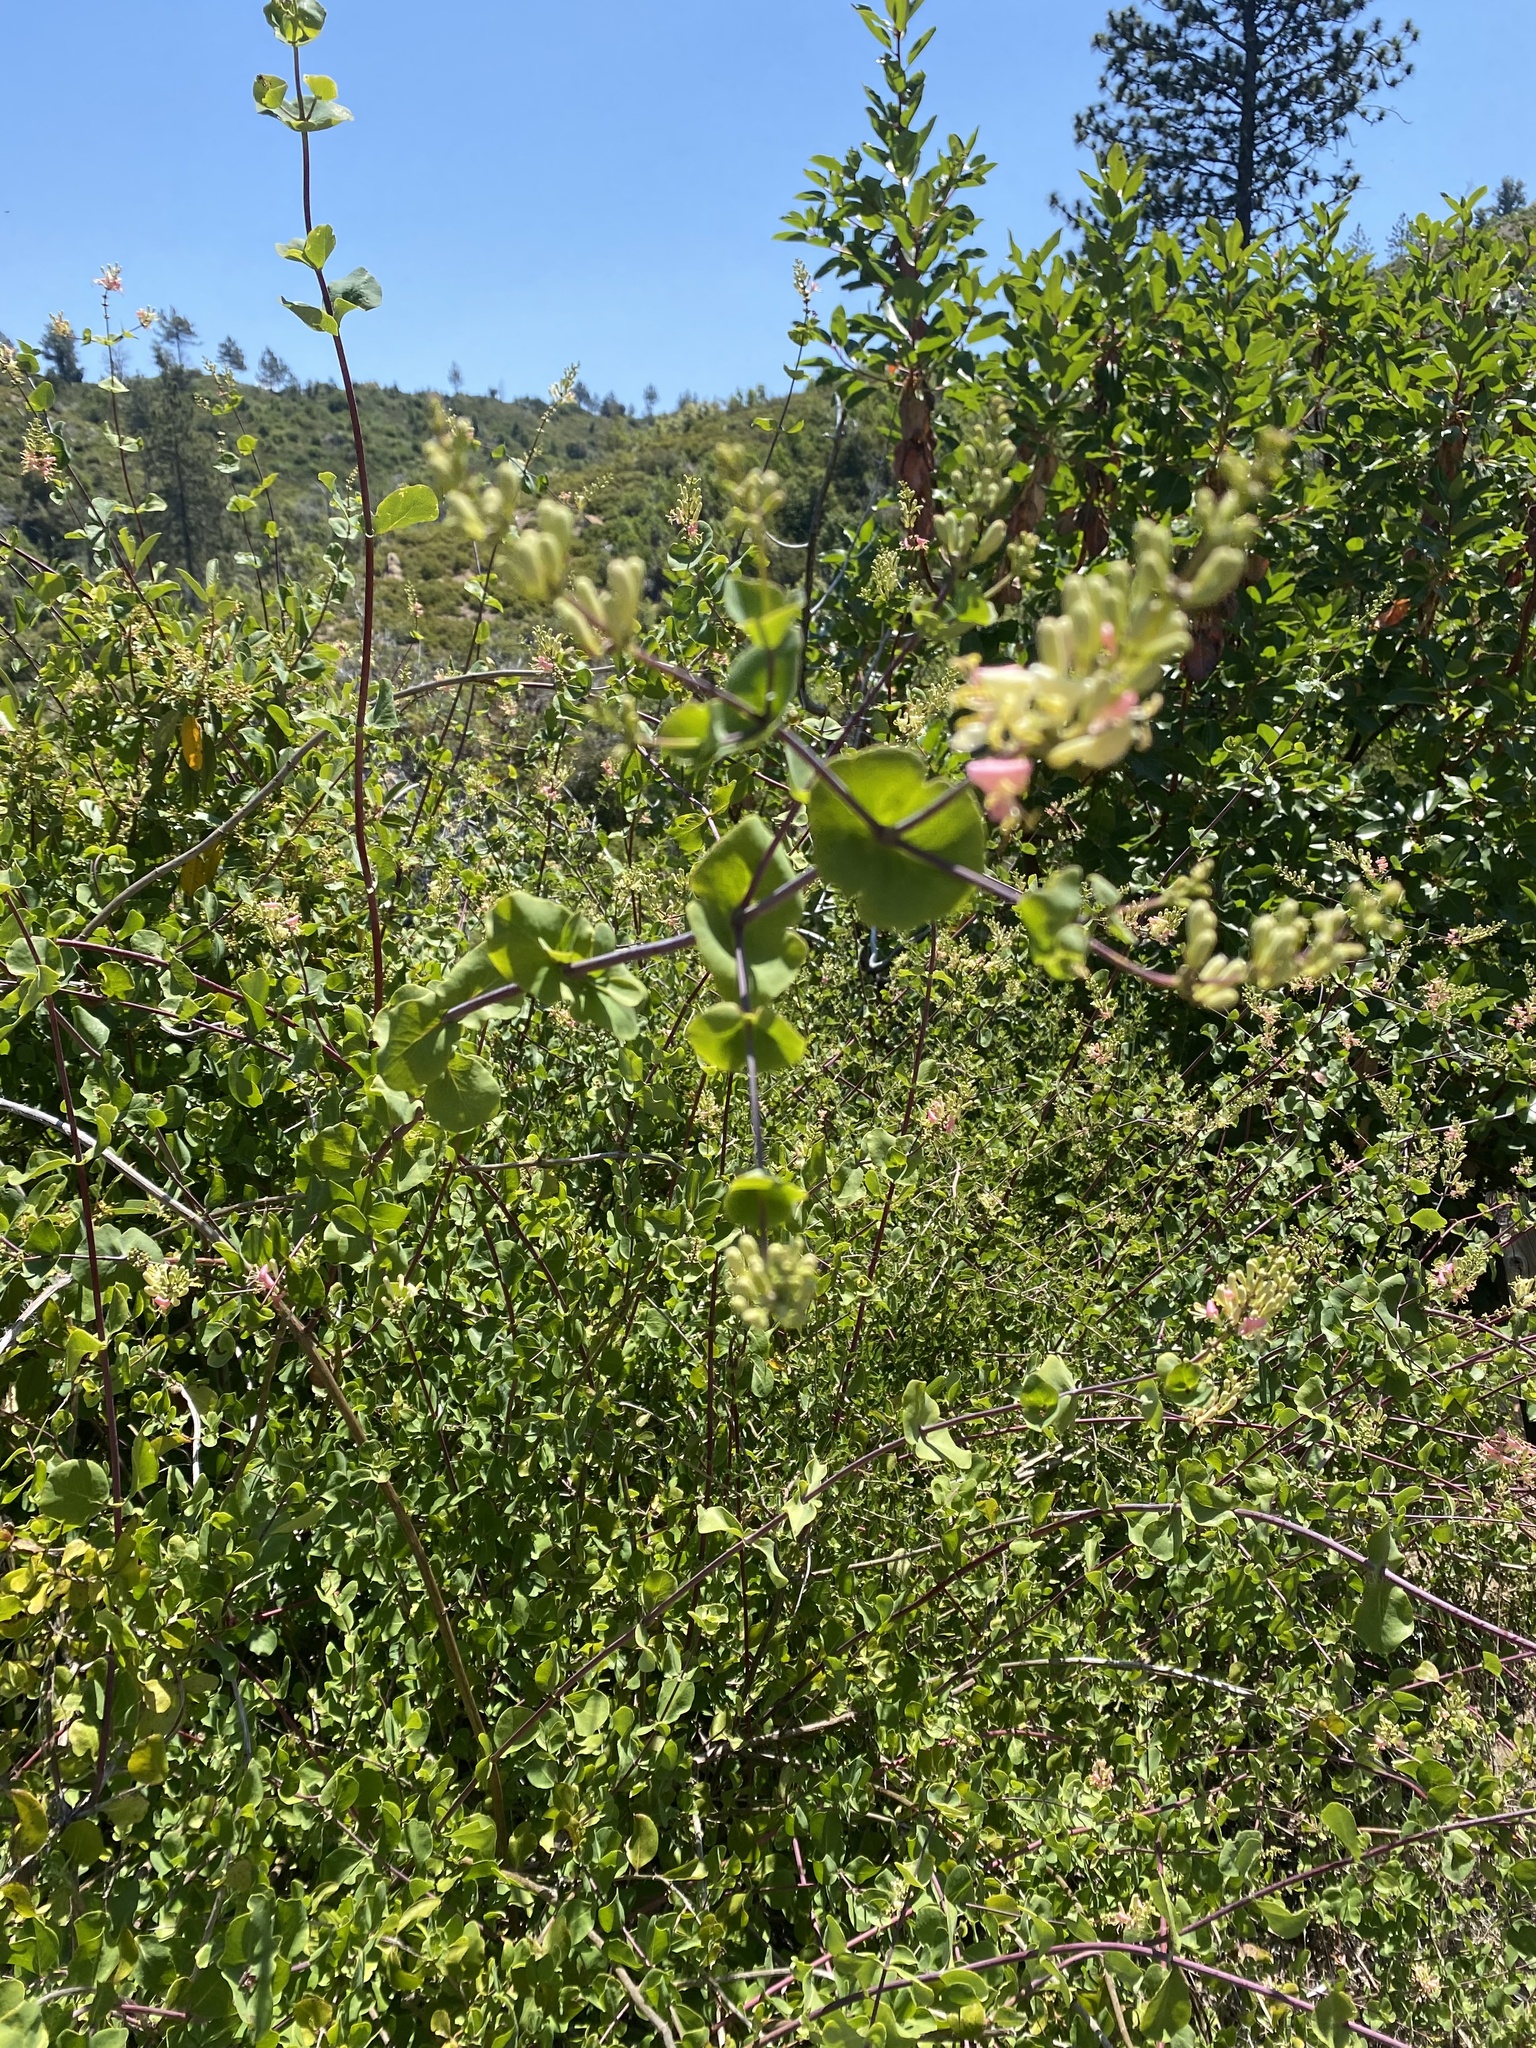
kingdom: Plantae
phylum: Tracheophyta
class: Magnoliopsida
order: Dipsacales
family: Caprifoliaceae
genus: Lonicera
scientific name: Lonicera hispidula
